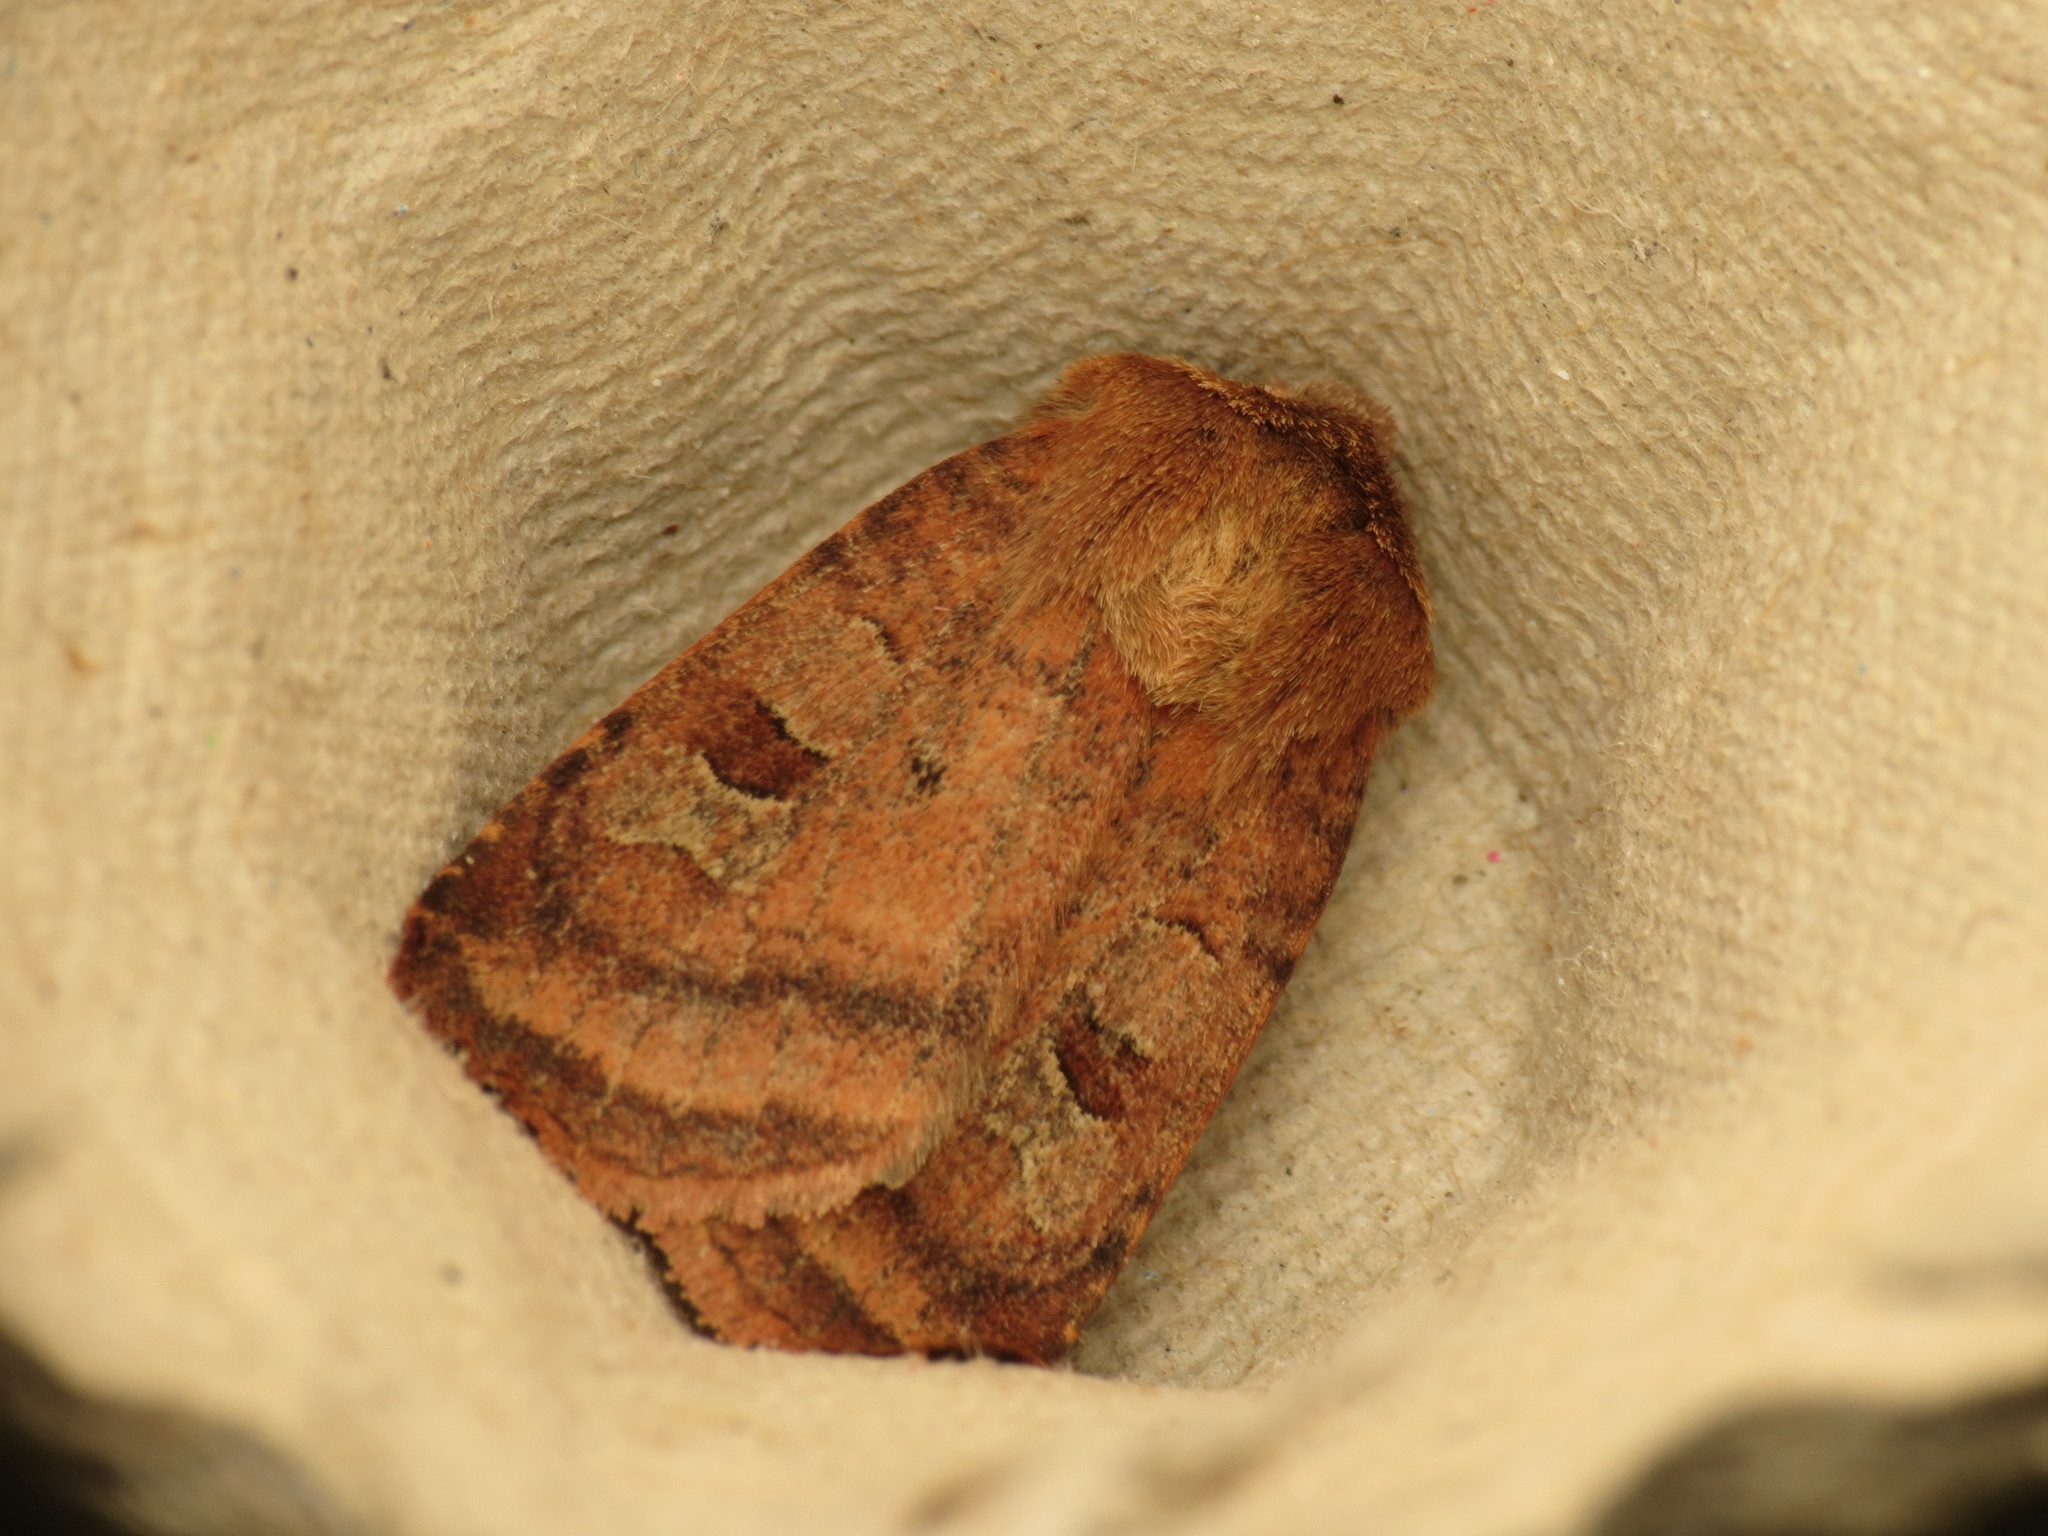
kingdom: Animalia
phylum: Arthropoda
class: Insecta
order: Lepidoptera
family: Noctuidae
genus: Diarsia
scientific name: Diarsia rubi
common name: Small square-spot
